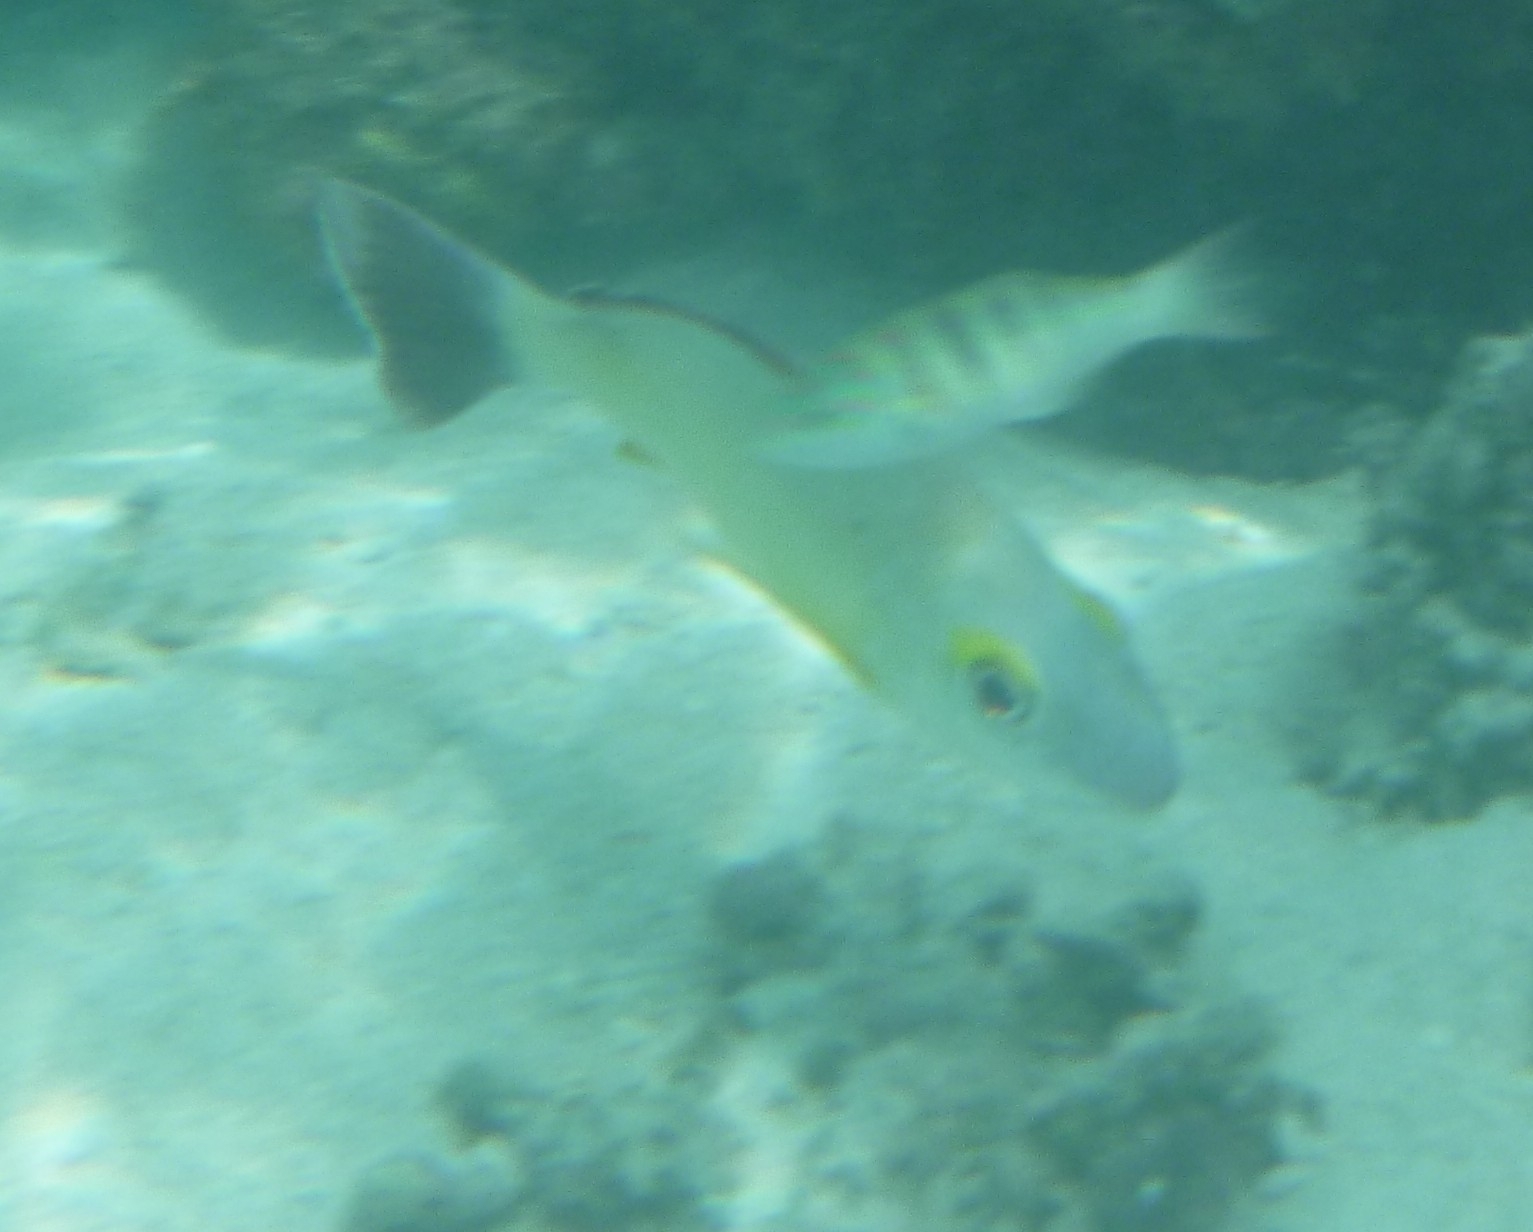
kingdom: Animalia
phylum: Chordata
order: Perciformes
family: Labridae
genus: Thalassoma
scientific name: Thalassoma hardwicke
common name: Sixbar wrasse
